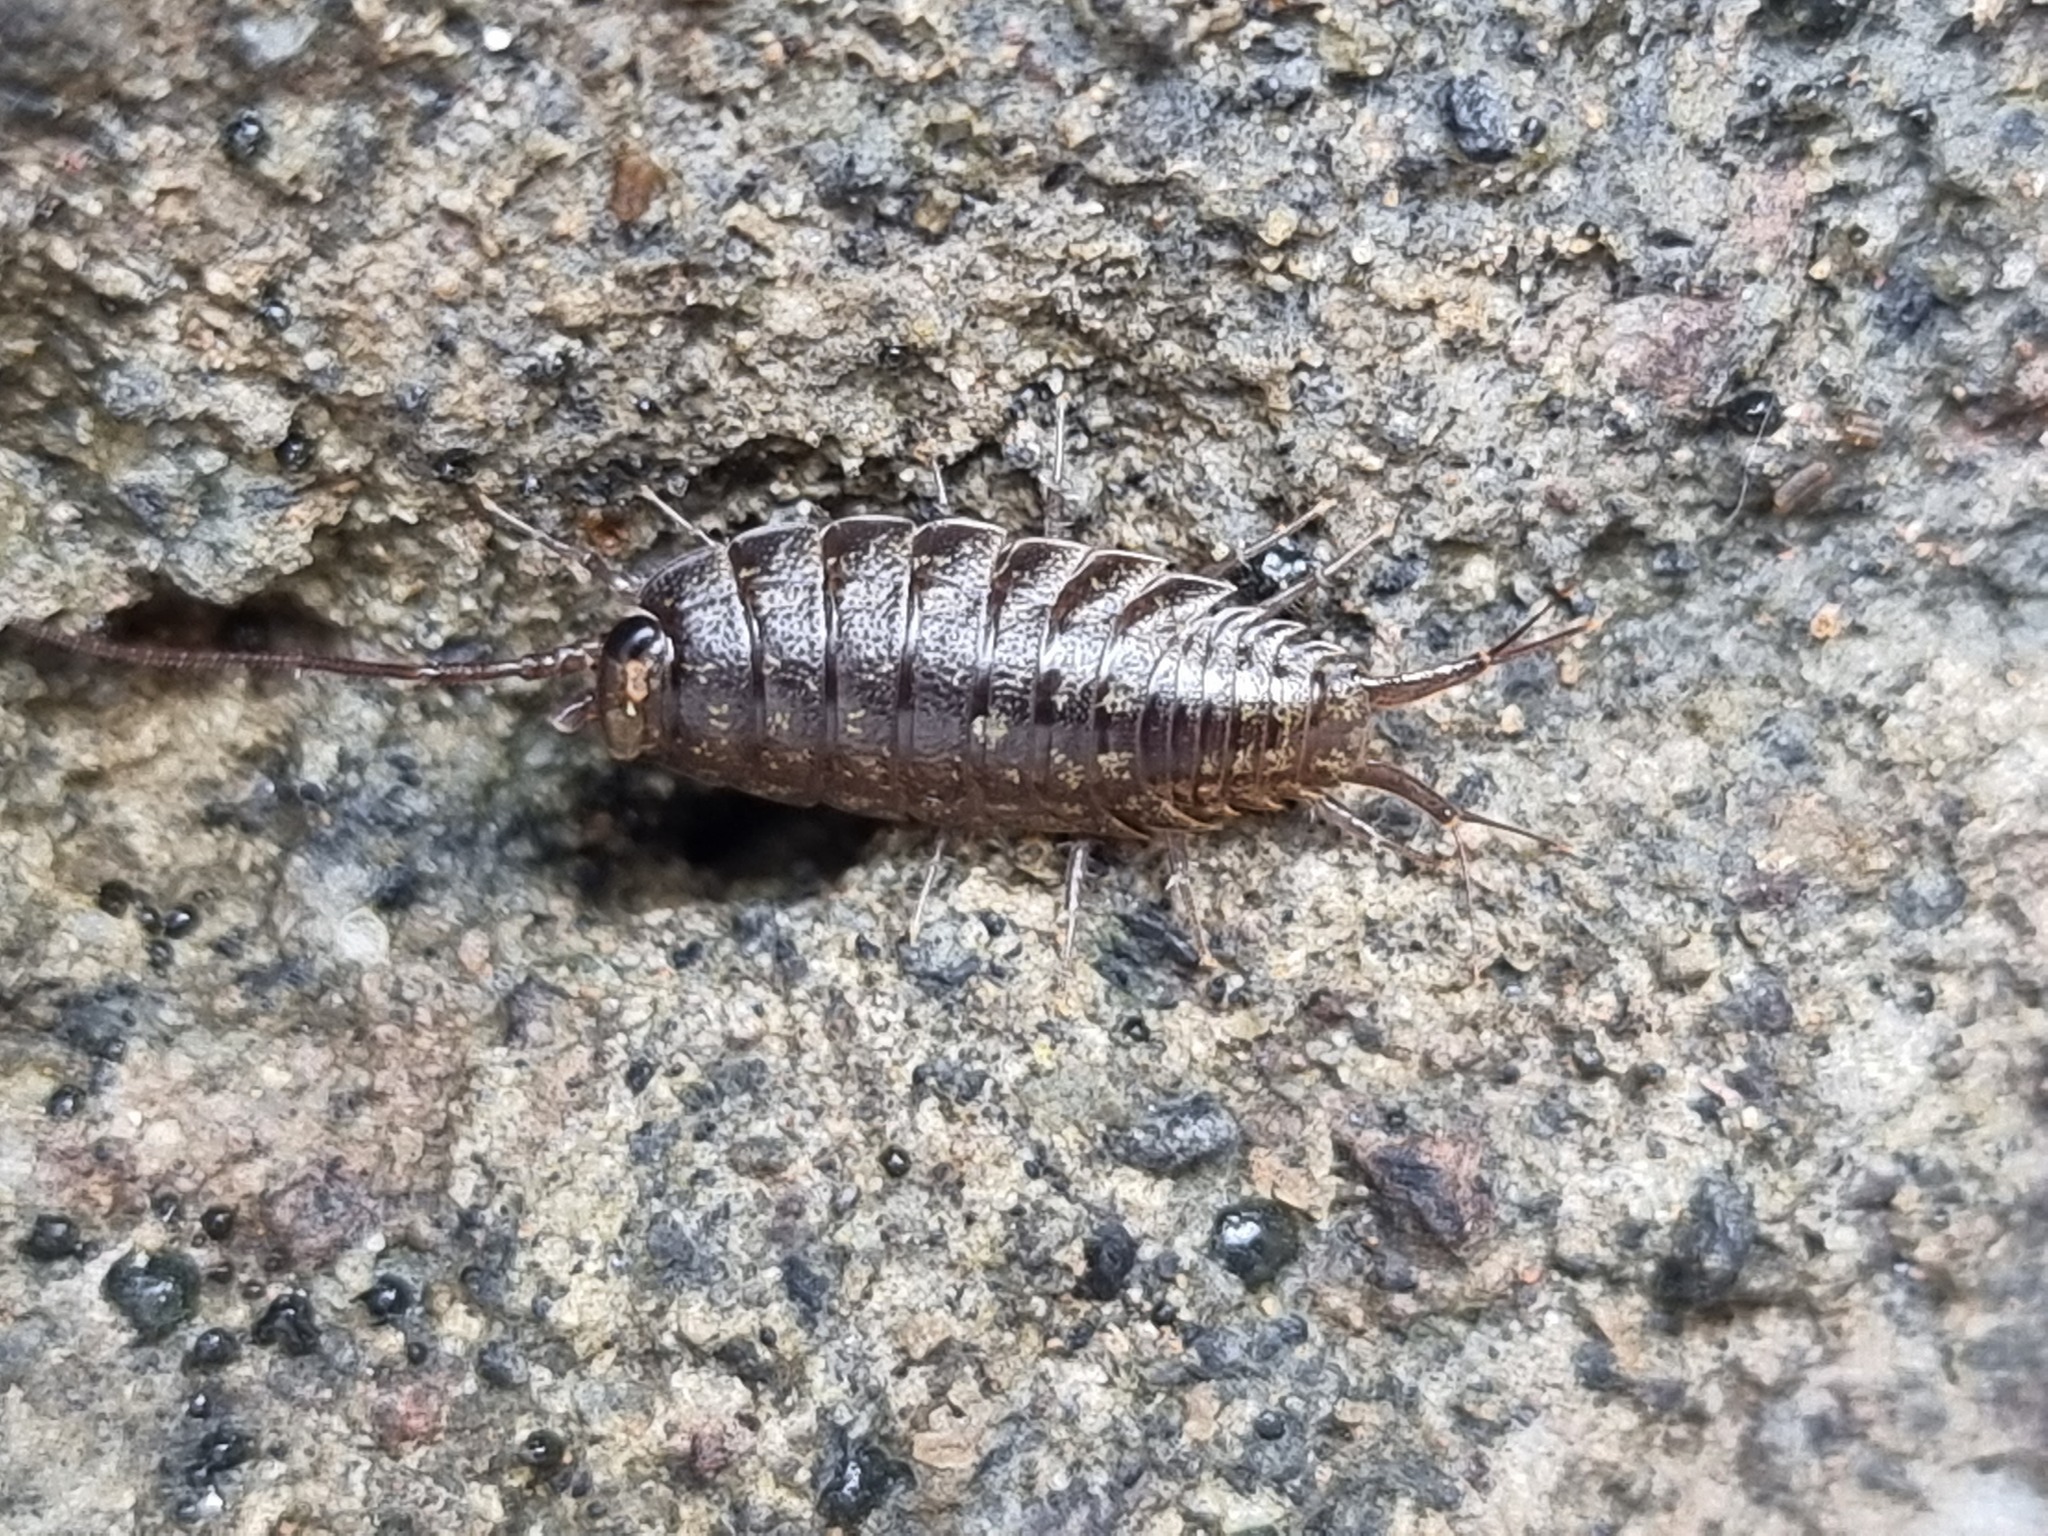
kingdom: Animalia
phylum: Arthropoda
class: Malacostraca
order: Isopoda
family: Ligiidae
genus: Ligia
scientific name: Ligia novizealandiae
